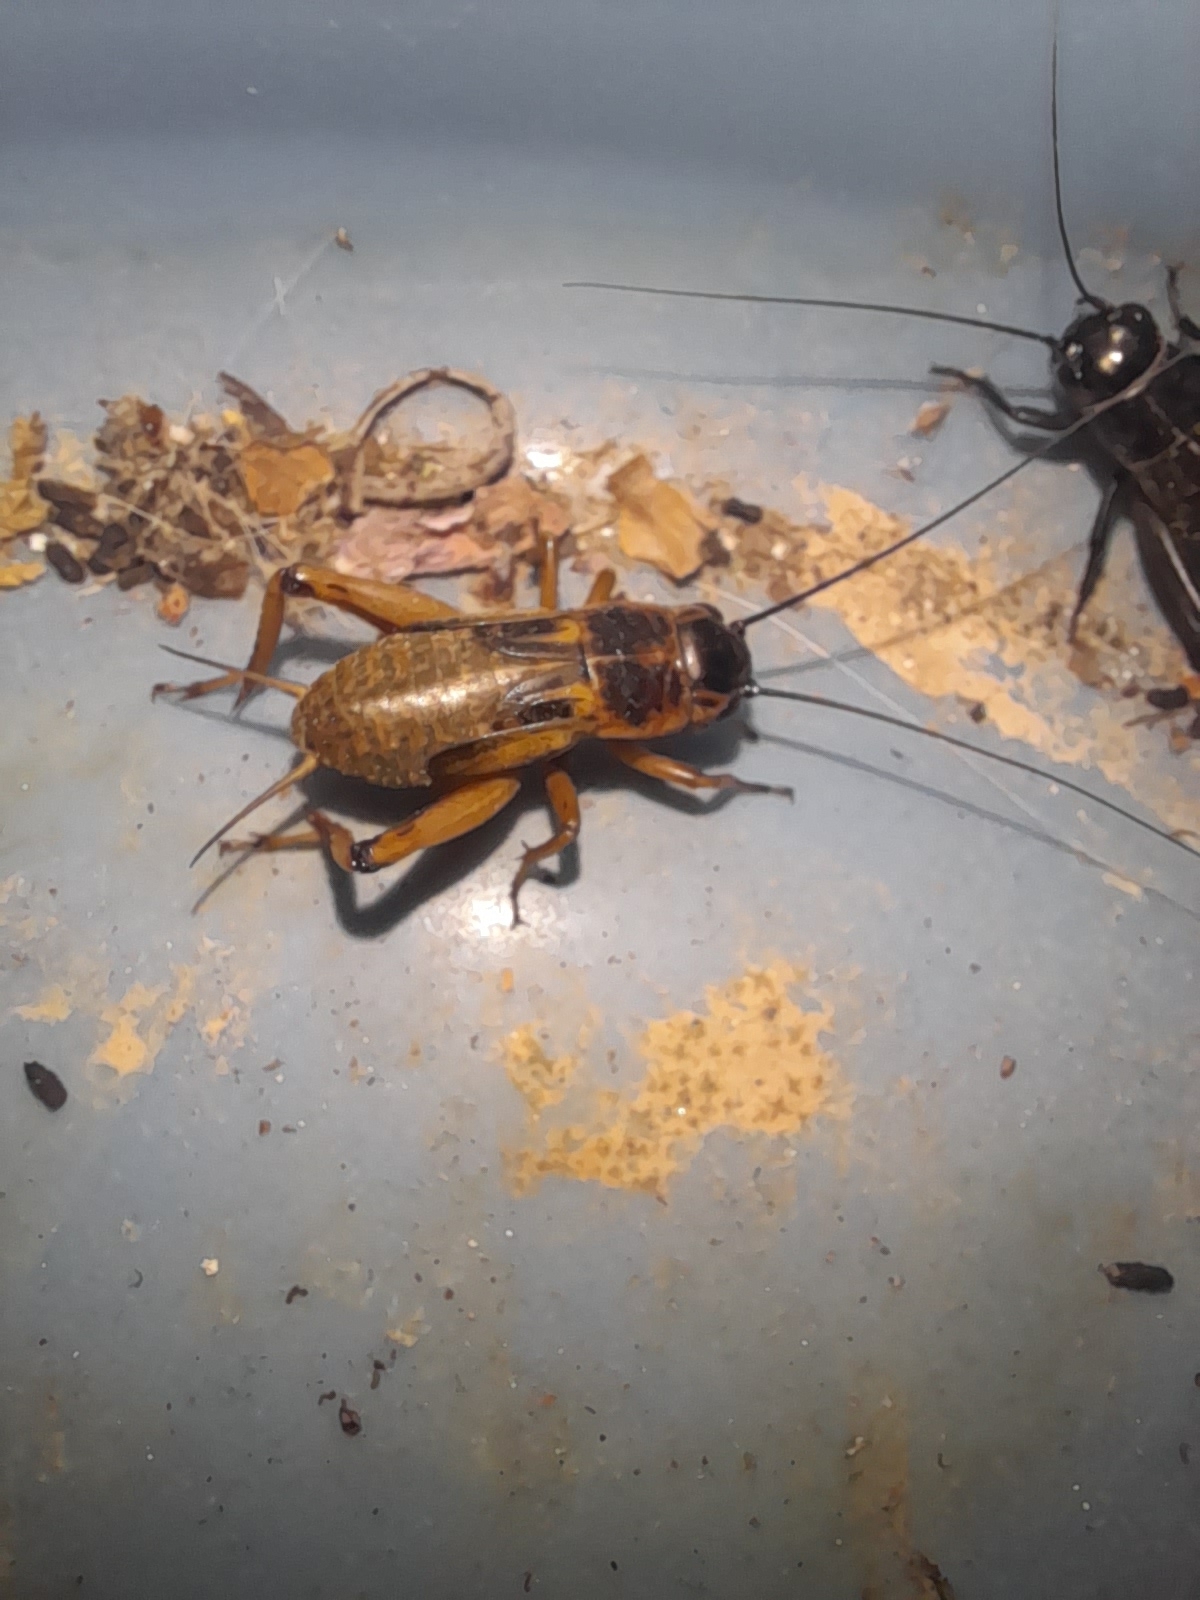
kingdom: Animalia
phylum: Arthropoda
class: Insecta
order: Orthoptera
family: Gryllidae
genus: Gryllus
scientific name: Gryllus bimaculatus
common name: Two-spotted cricket
